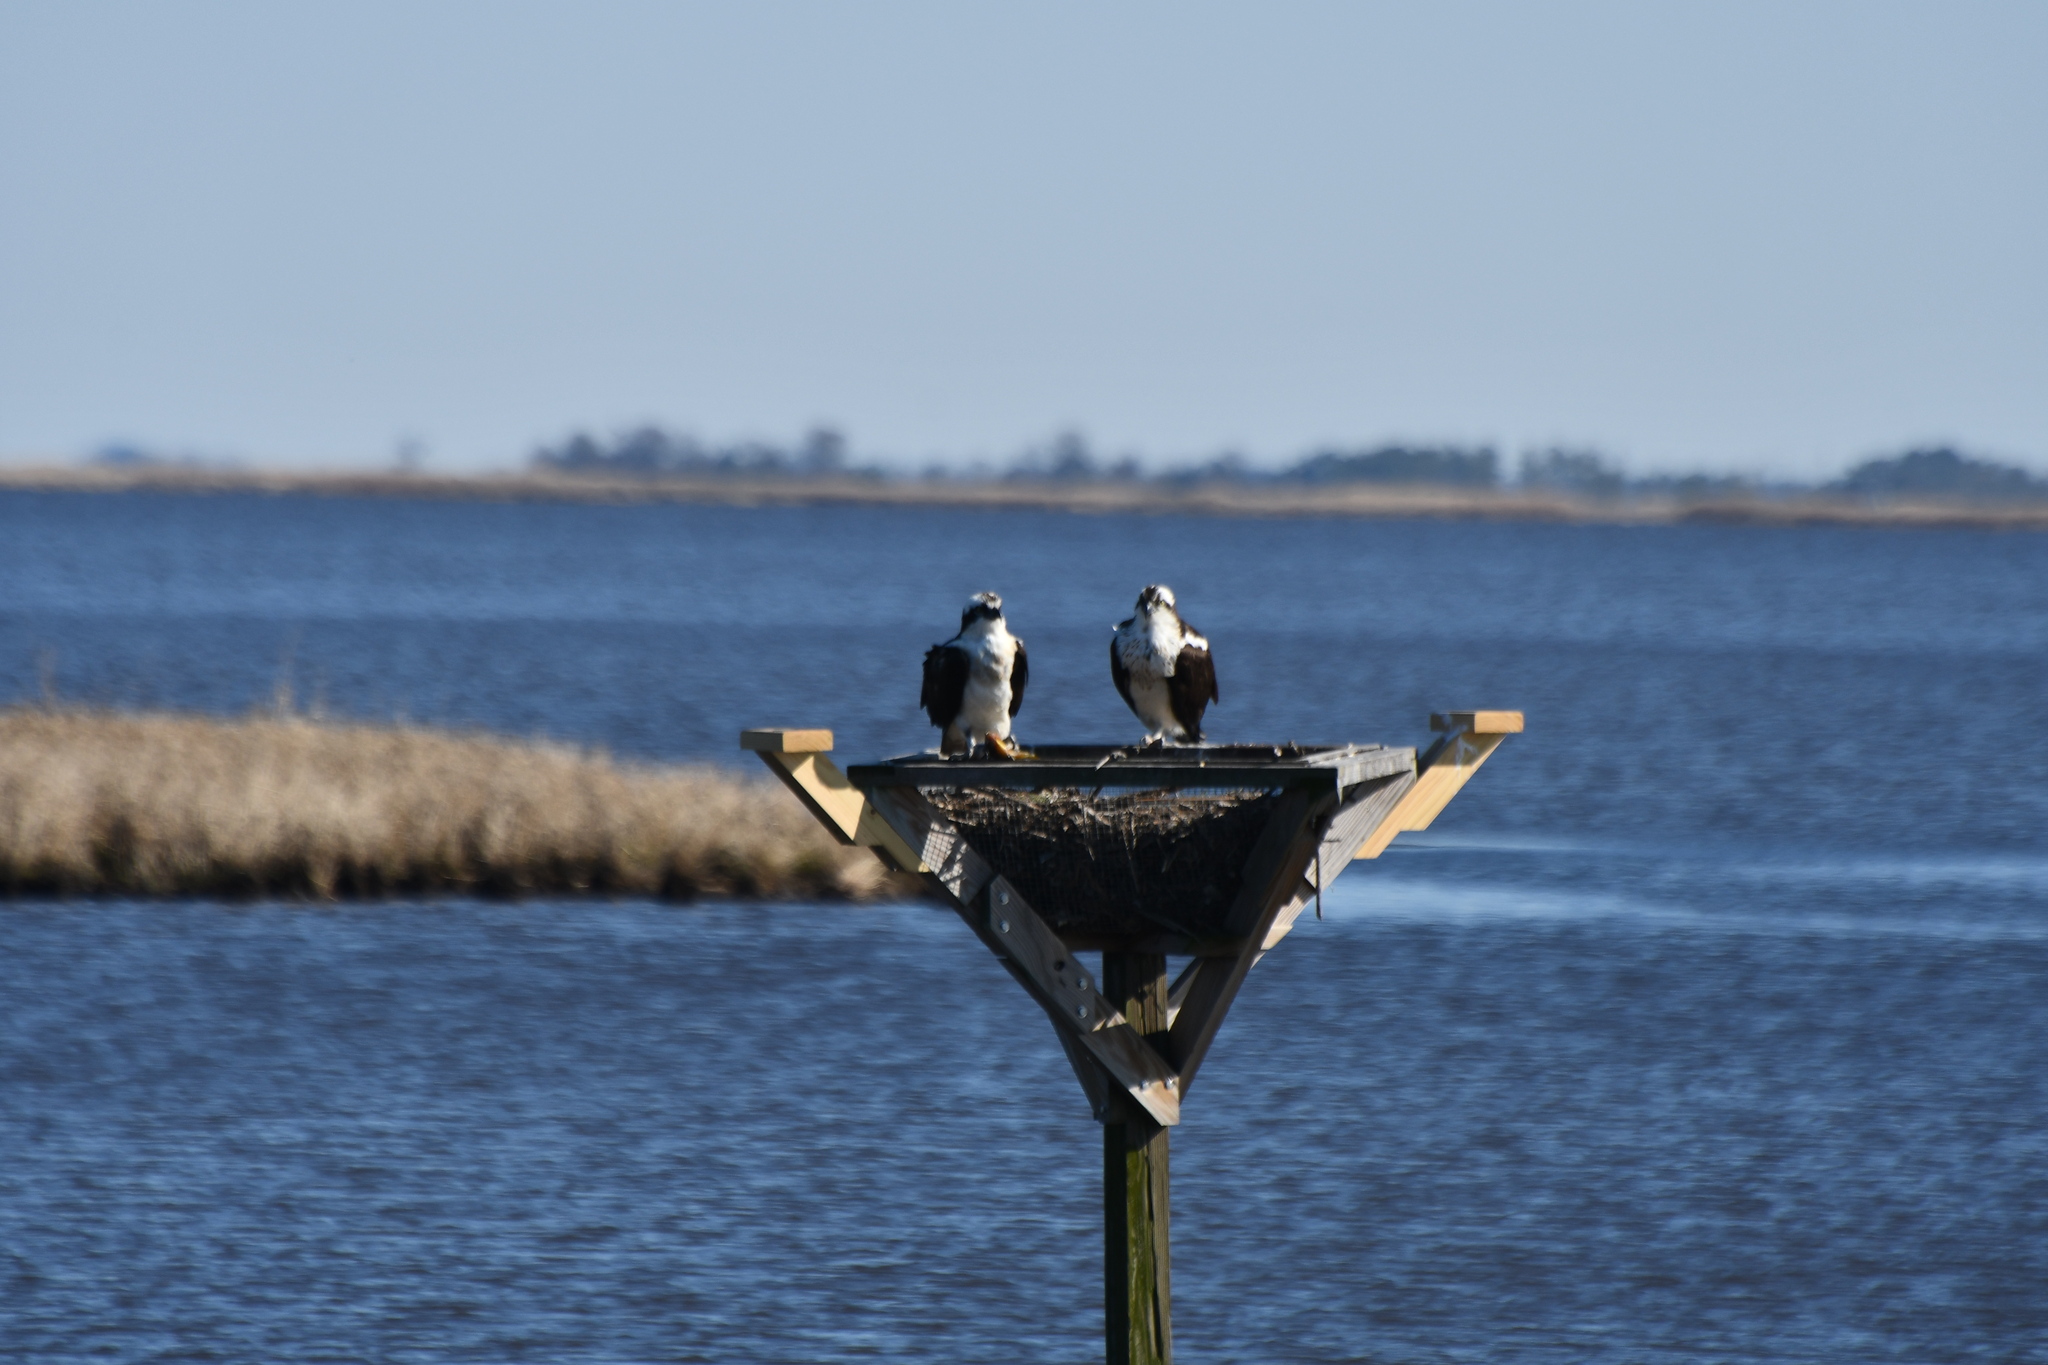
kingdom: Animalia
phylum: Chordata
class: Aves
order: Accipitriformes
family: Pandionidae
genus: Pandion
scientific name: Pandion haliaetus
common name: Osprey
